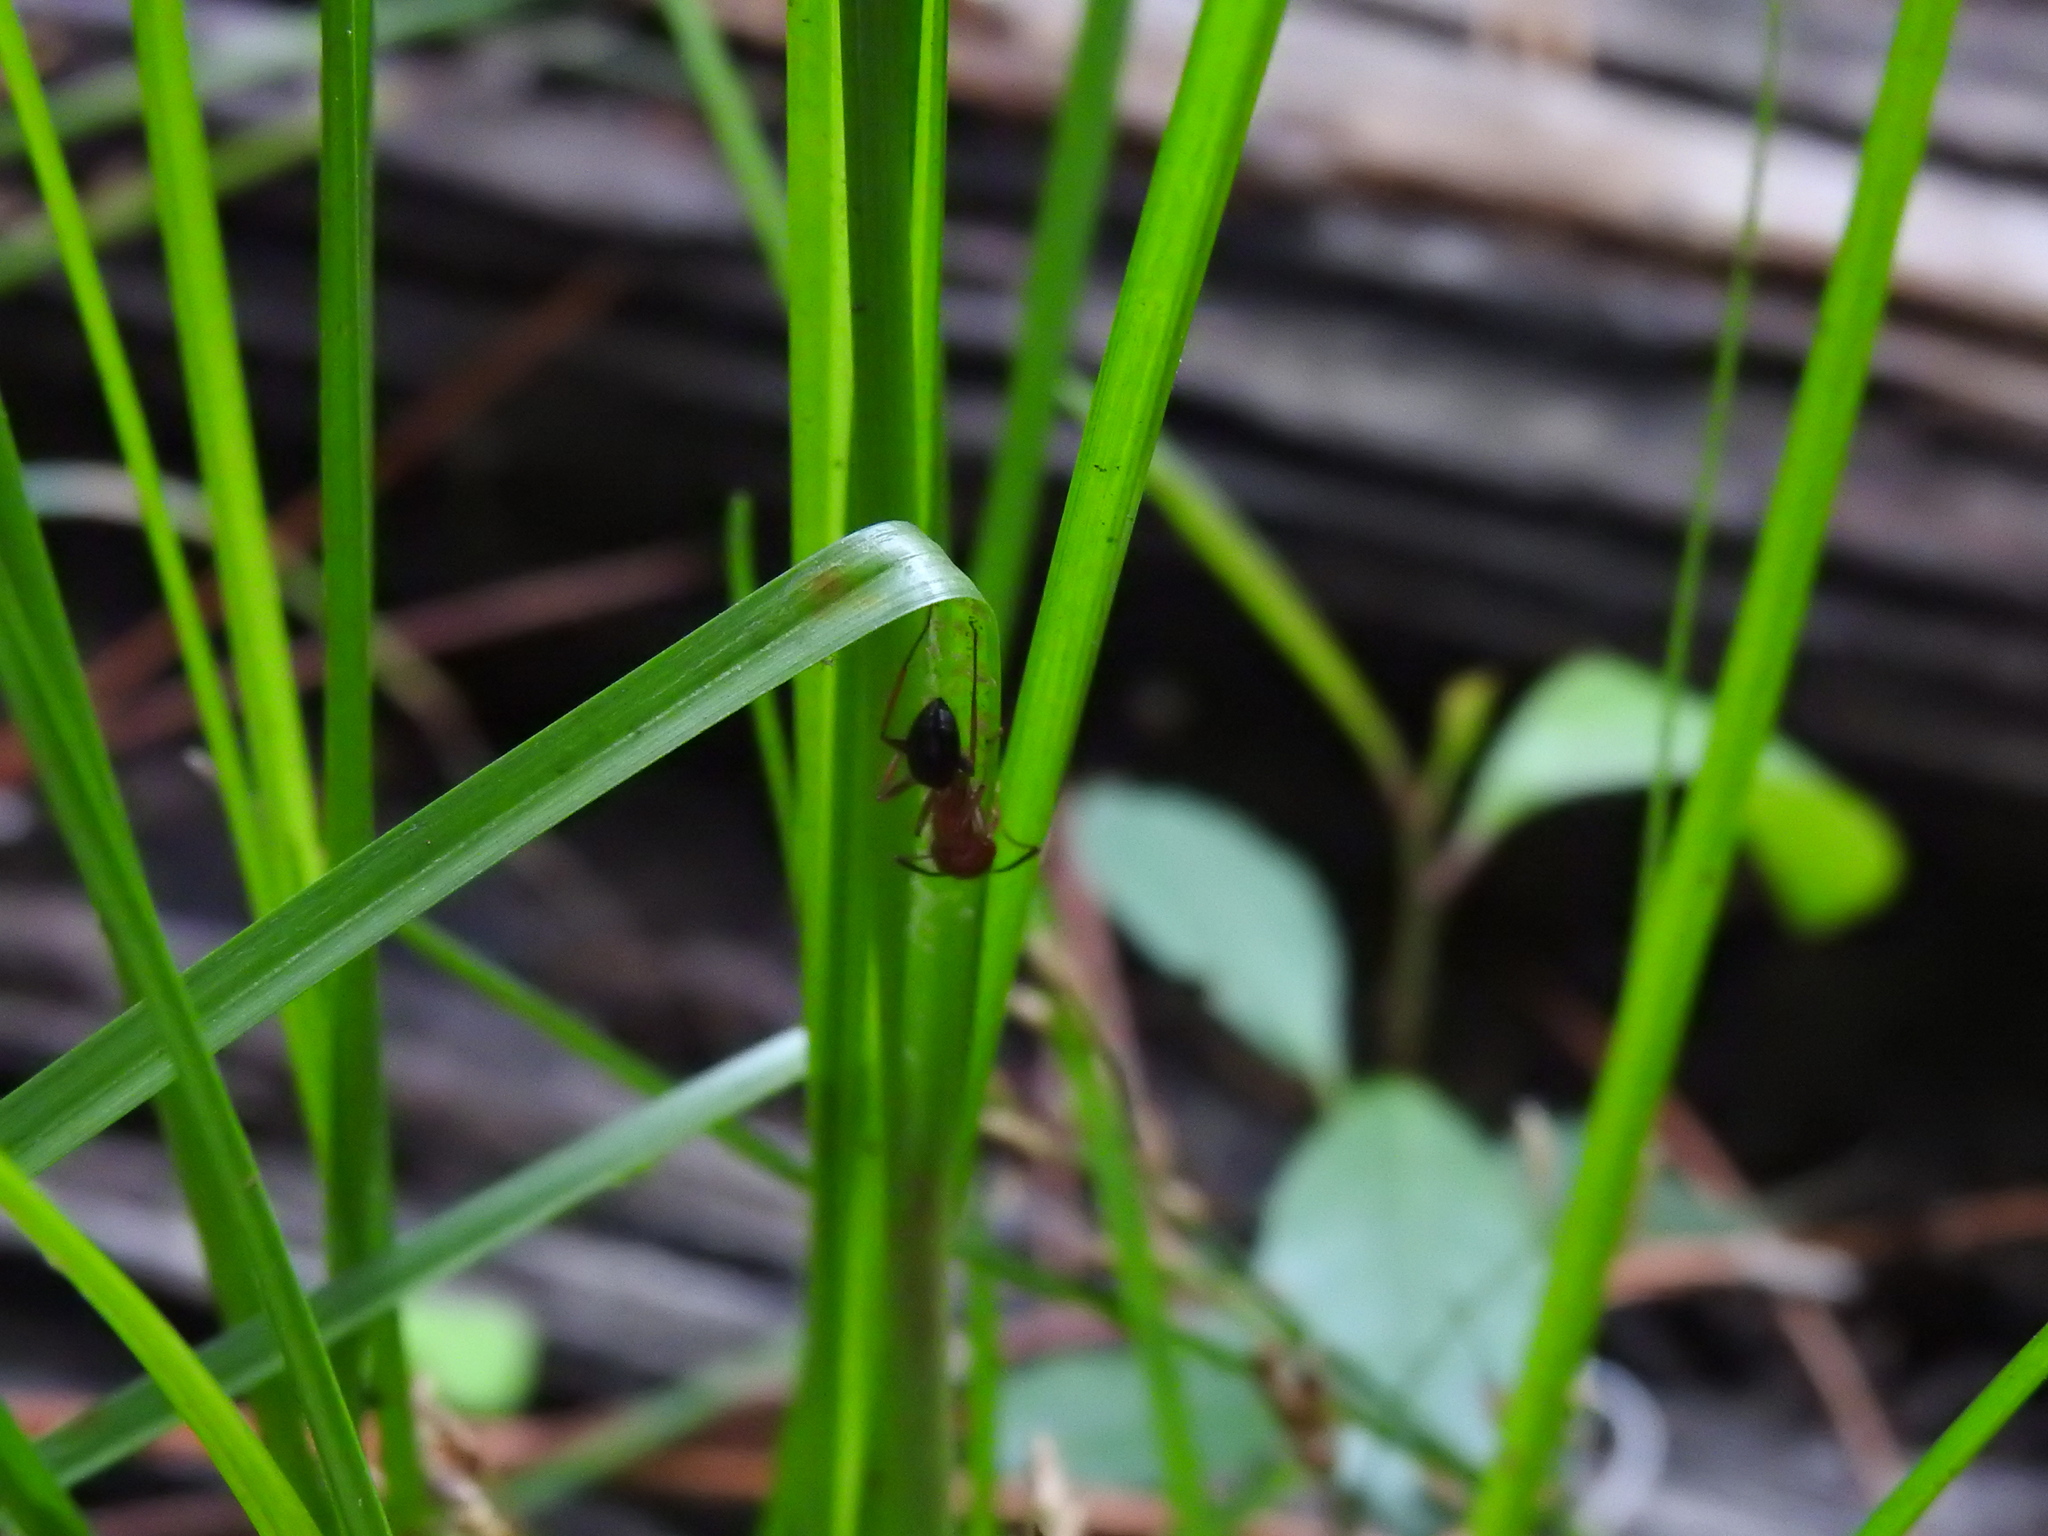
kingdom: Plantae
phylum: Tracheophyta
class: Liliopsida
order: Poales
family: Cyperaceae
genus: Cyperus
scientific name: Cyperus polystachyos
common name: Bunchy flat sedge
